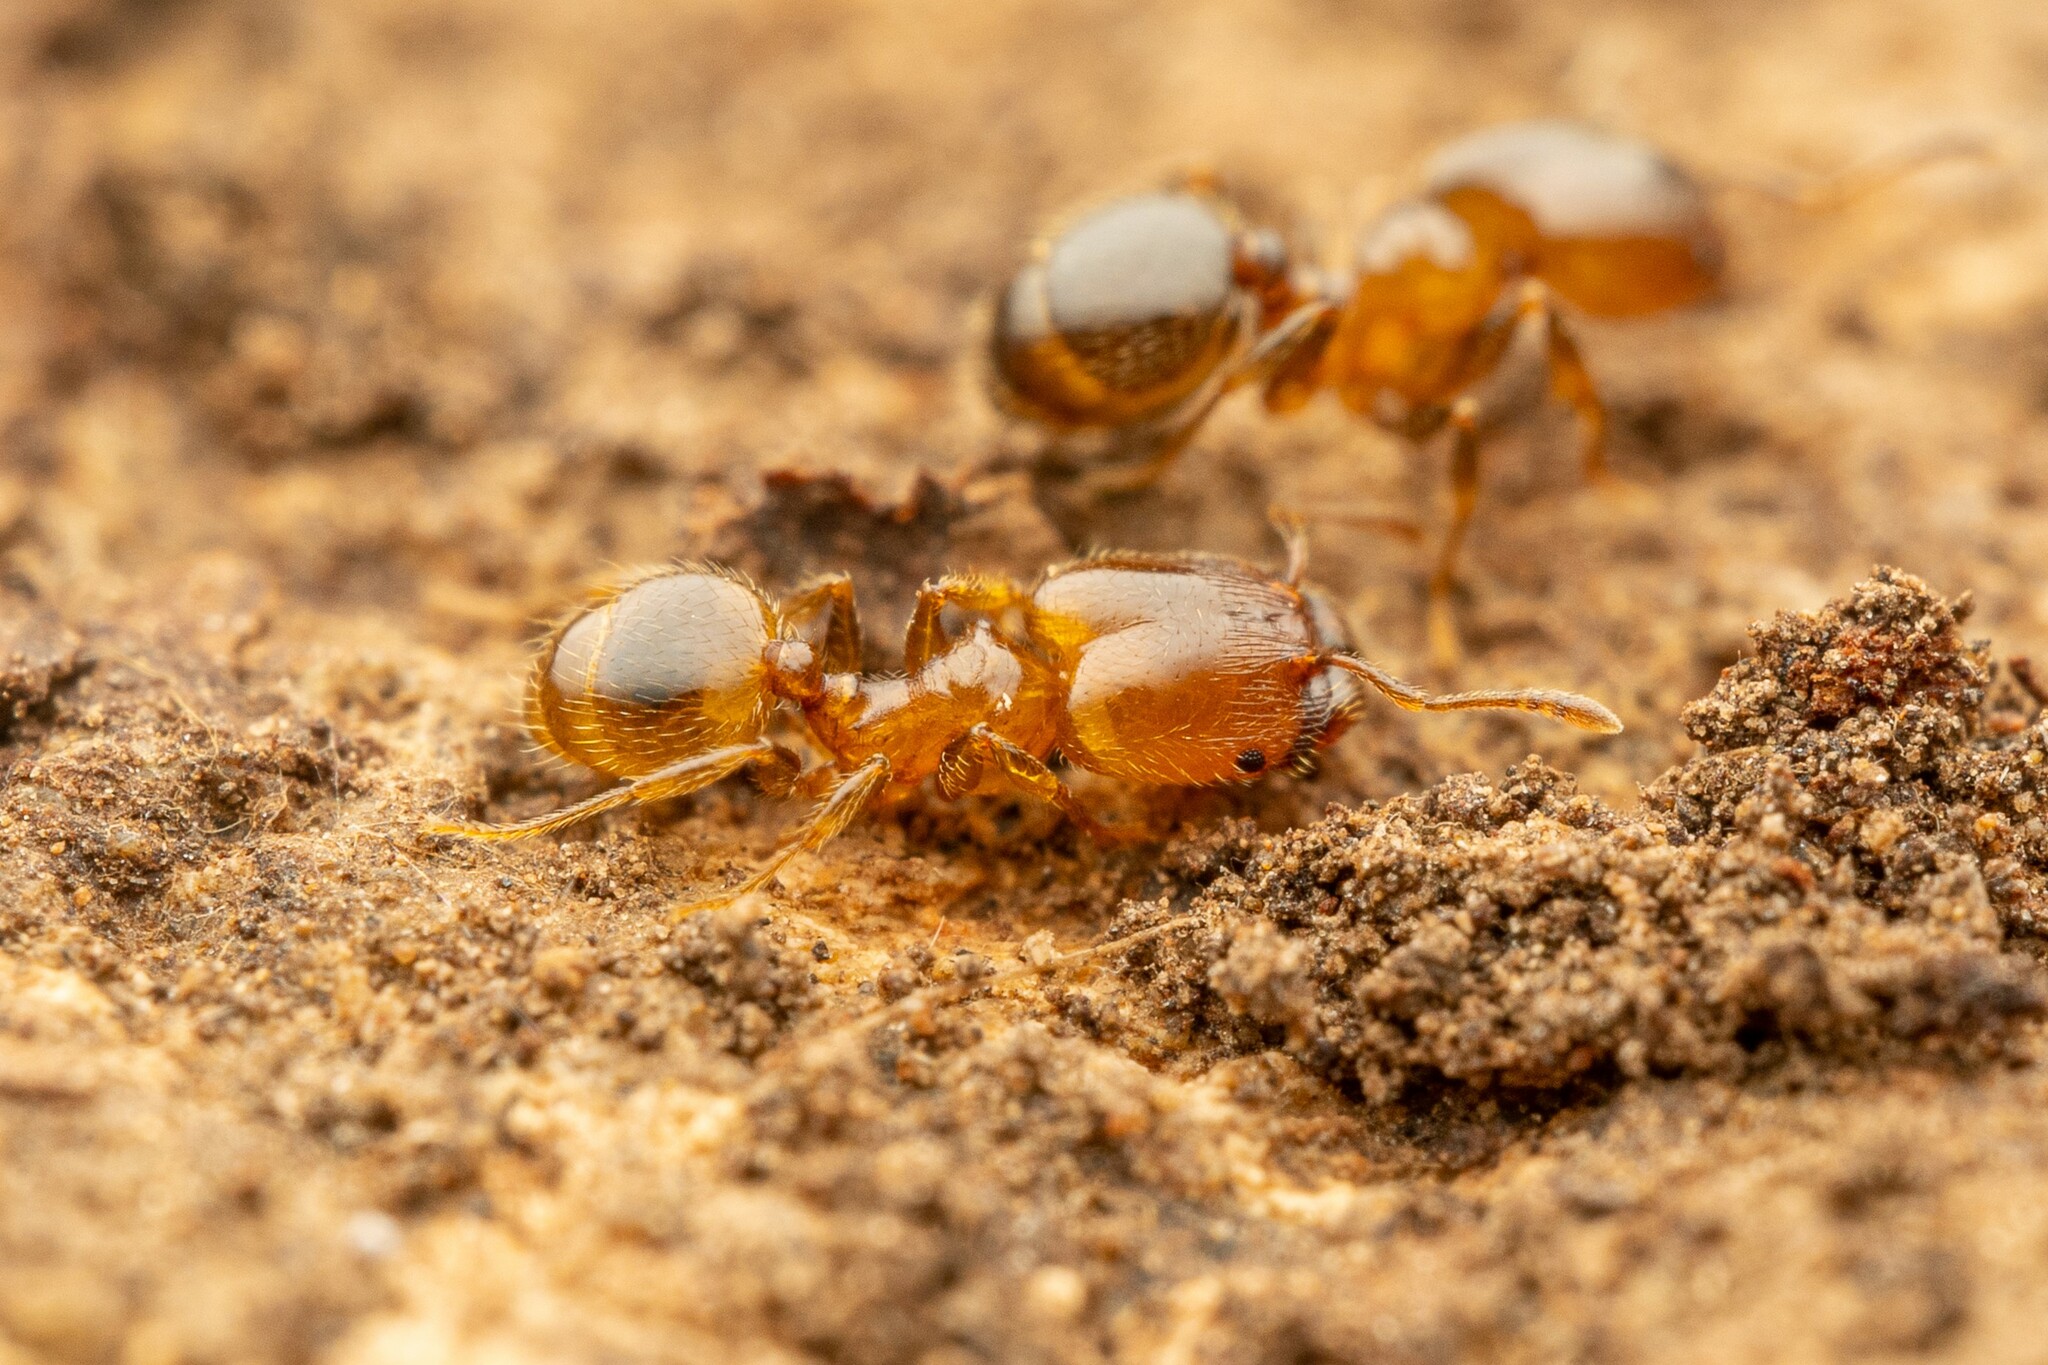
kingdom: Animalia
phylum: Arthropoda
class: Insecta
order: Hymenoptera
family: Formicidae
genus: Pheidole
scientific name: Pheidole bicarinata
